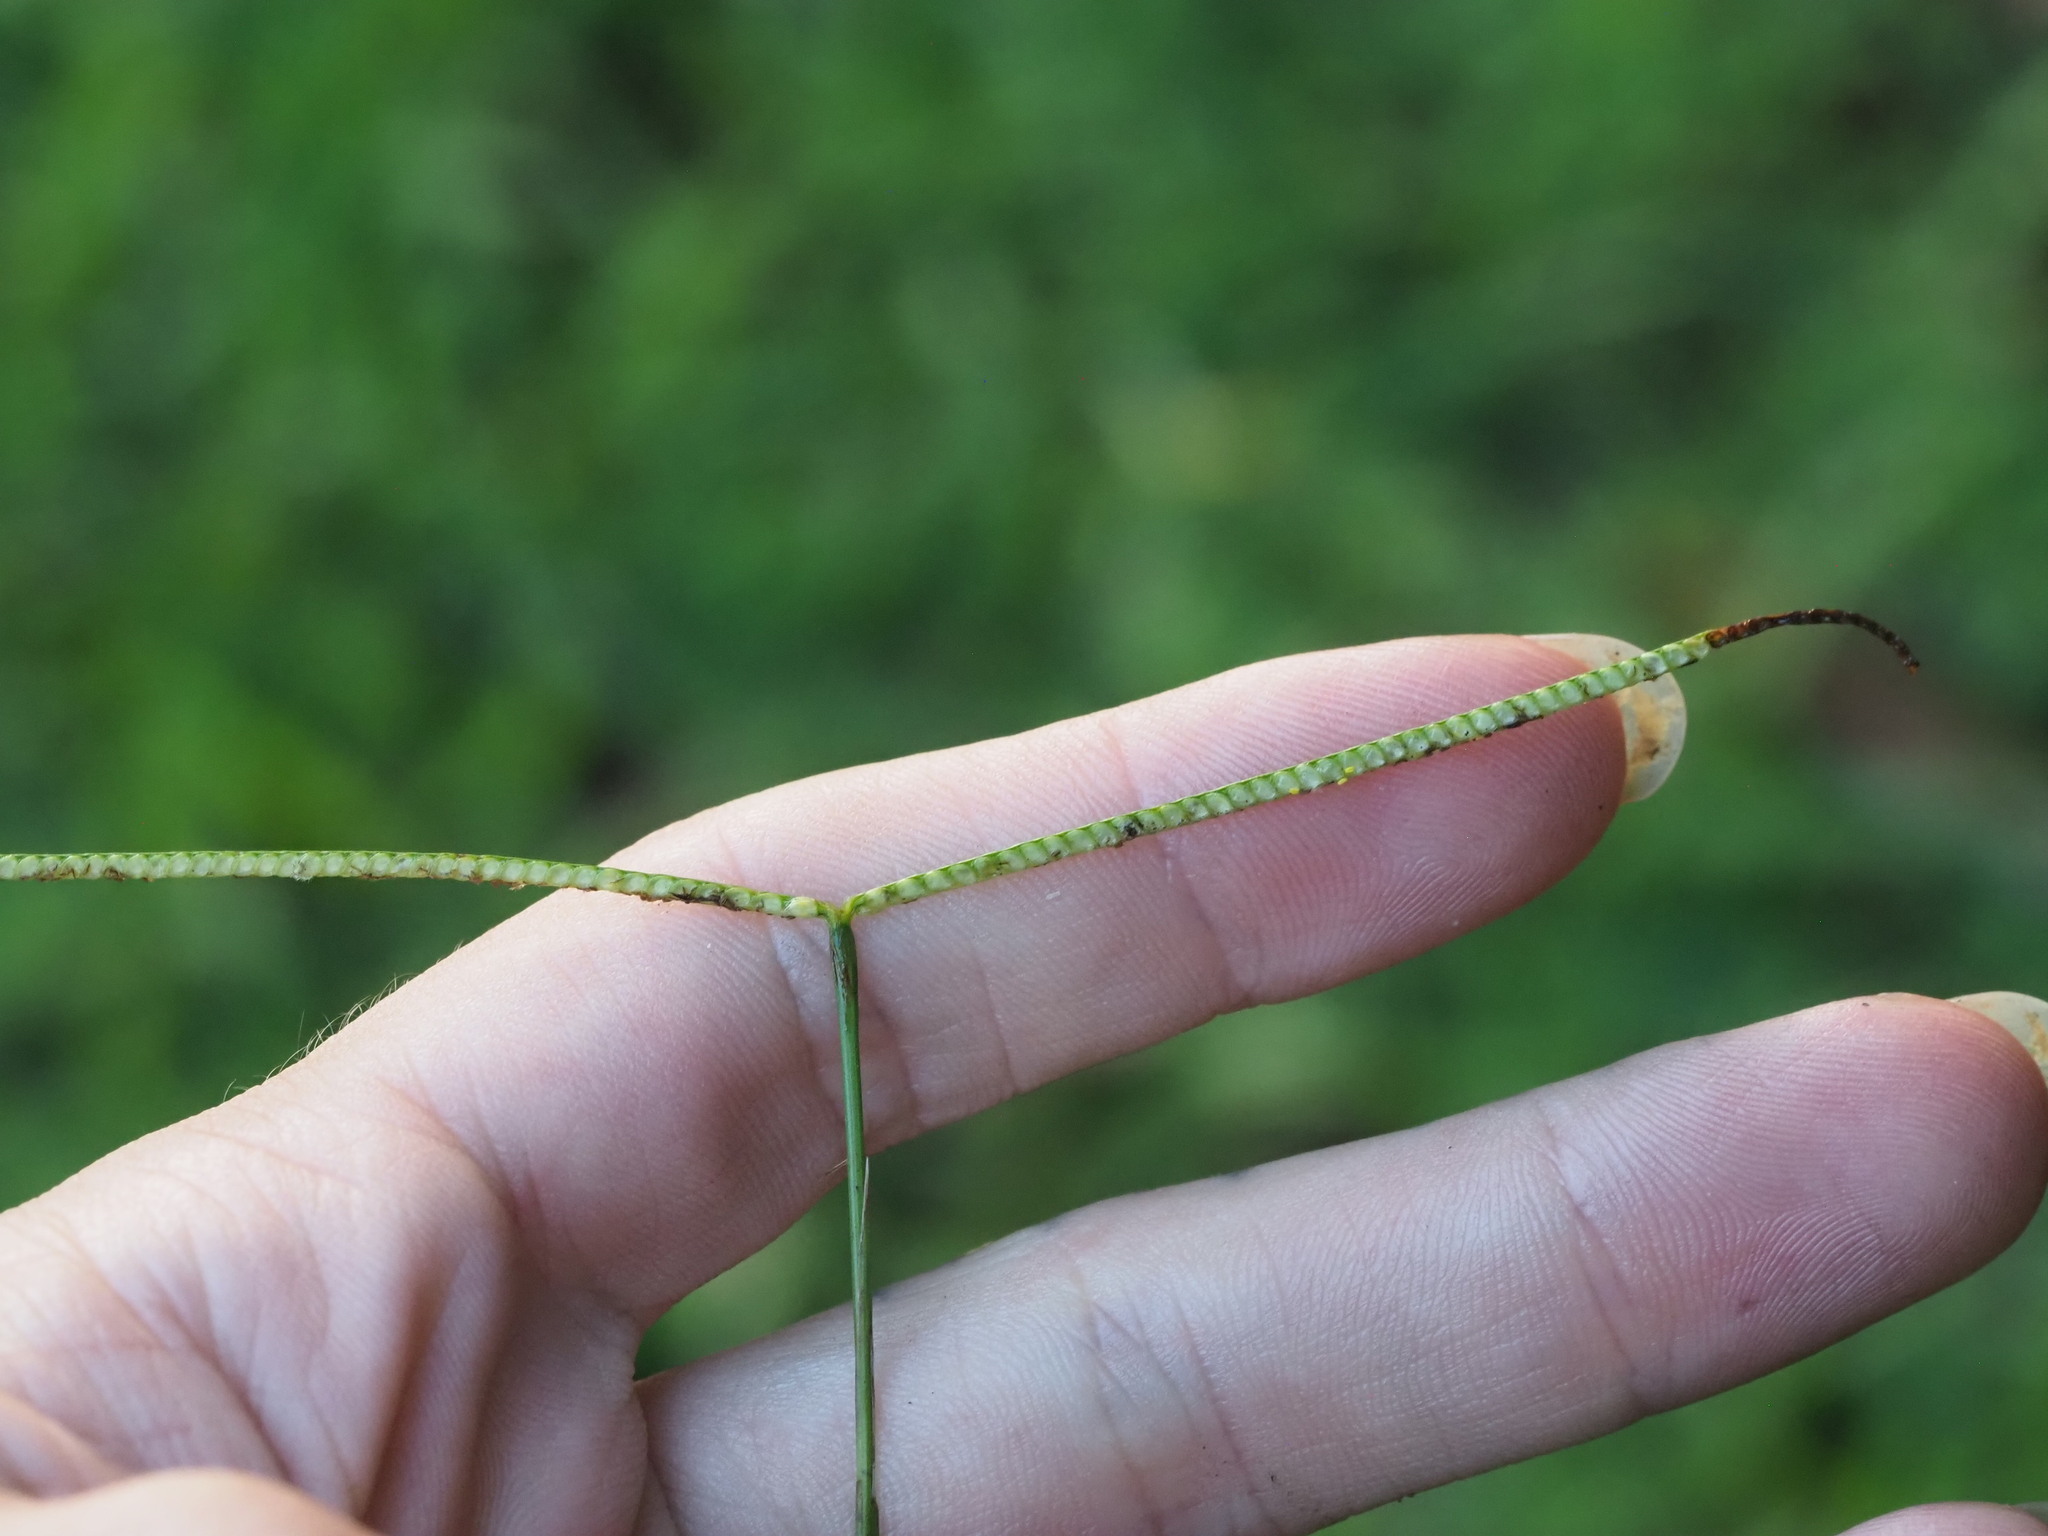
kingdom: Plantae
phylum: Tracheophyta
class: Liliopsida
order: Poales
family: Poaceae
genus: Paspalum
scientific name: Paspalum conjugatum
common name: Hilograss
